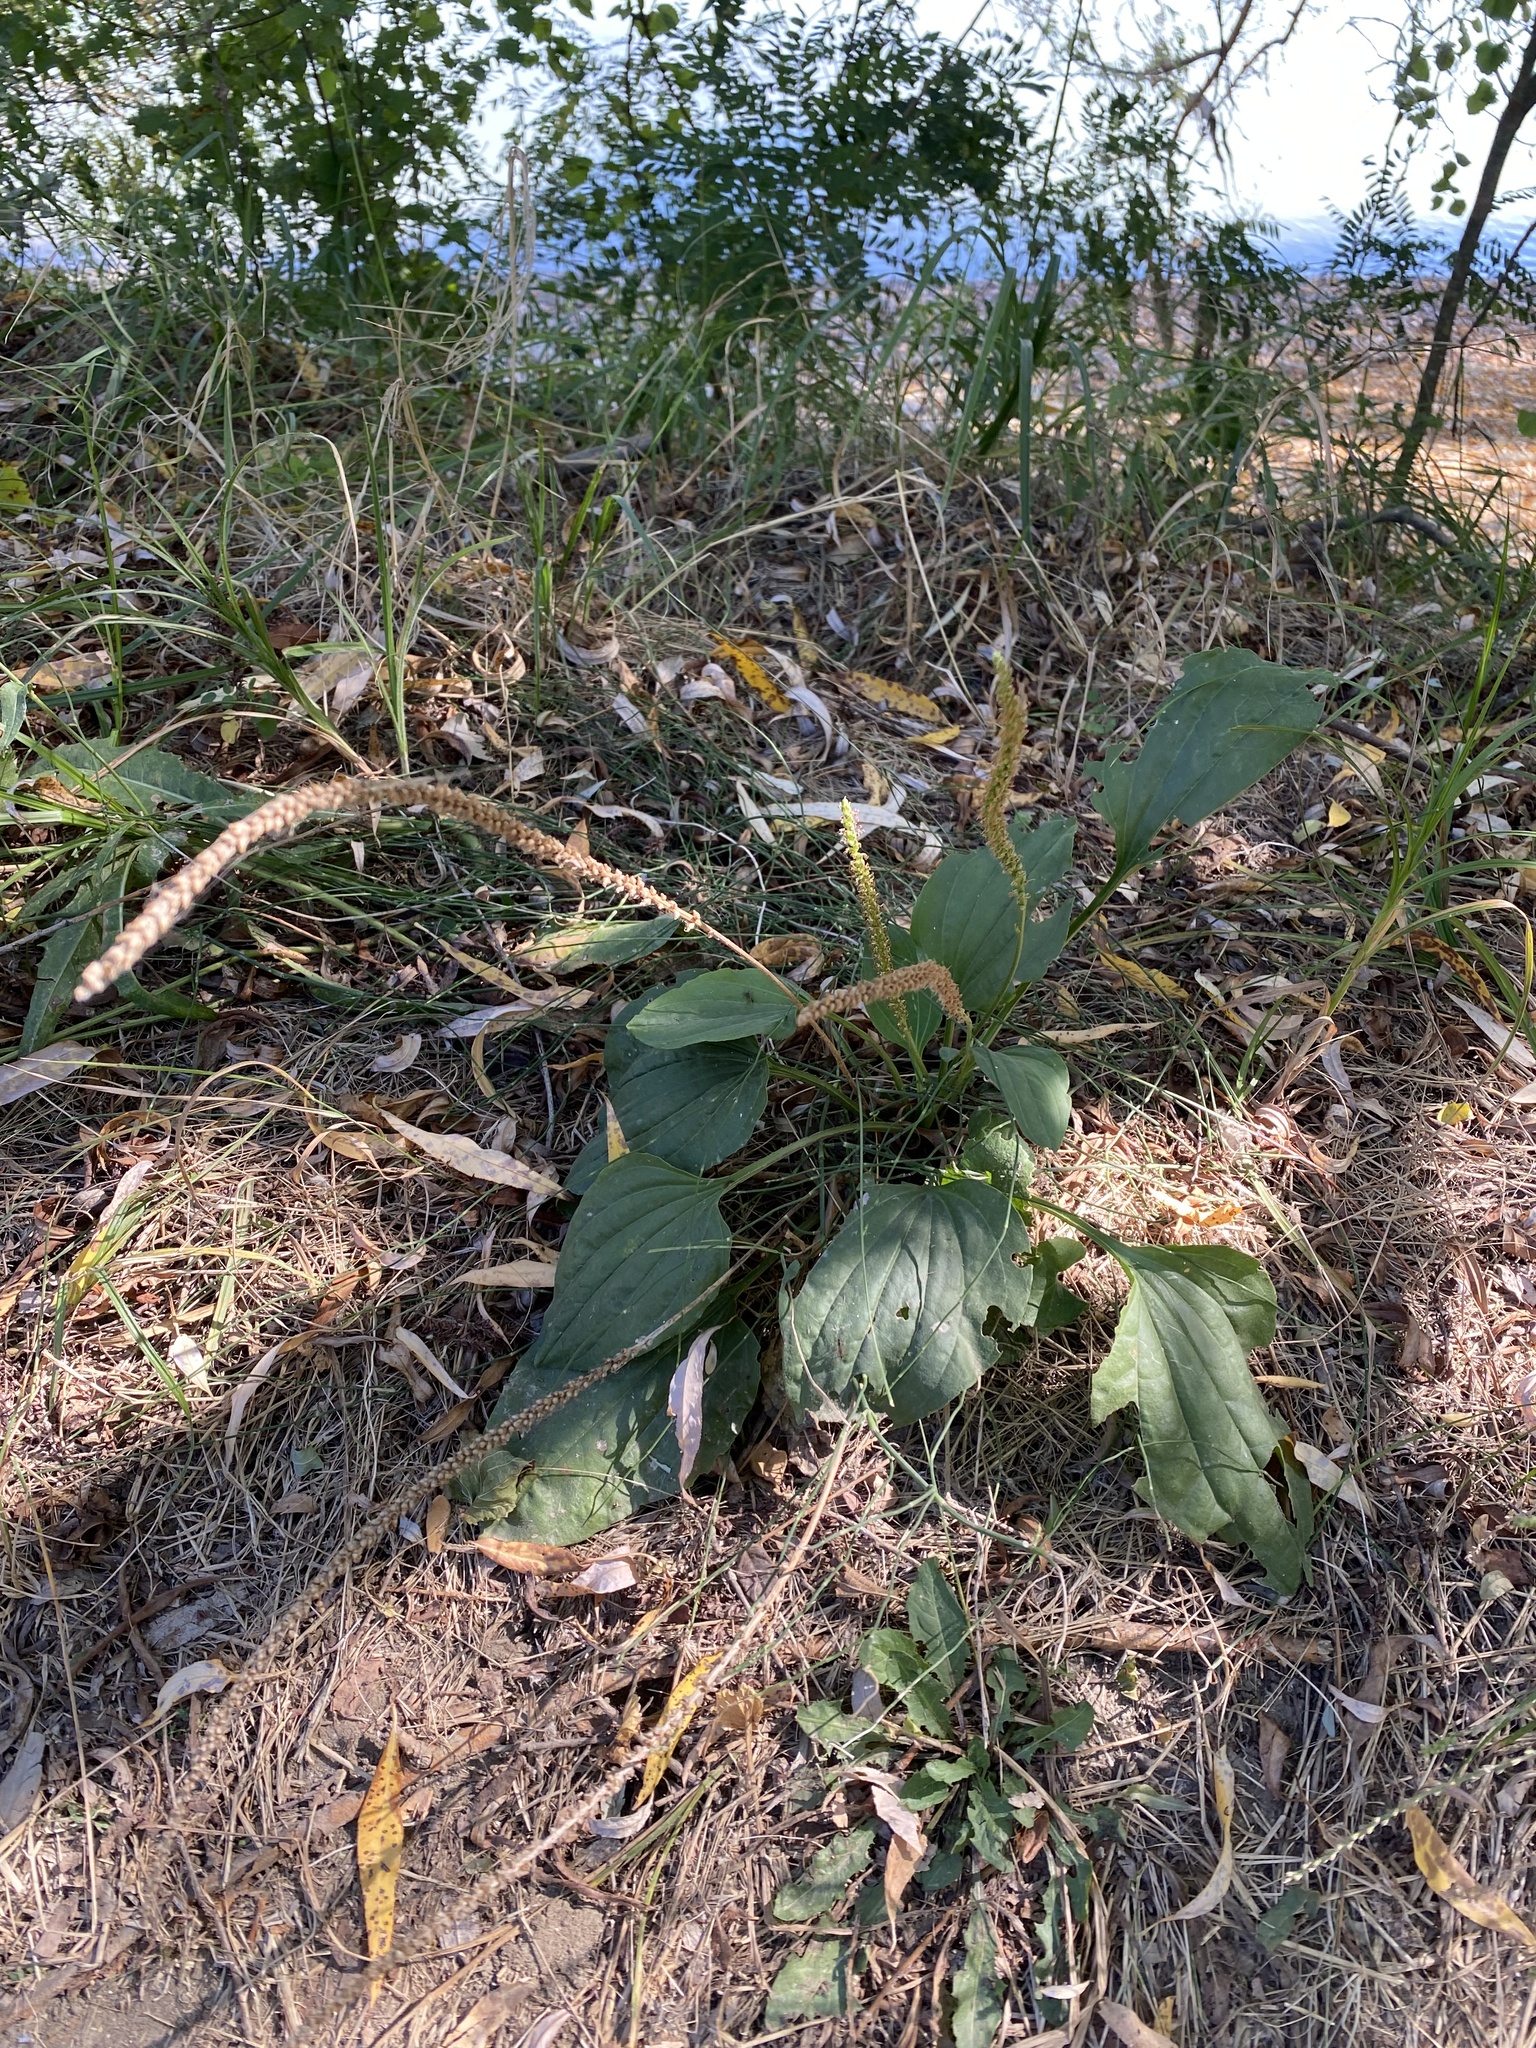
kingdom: Plantae
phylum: Tracheophyta
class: Magnoliopsida
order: Lamiales
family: Plantaginaceae
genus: Plantago
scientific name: Plantago major
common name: Common plantain
